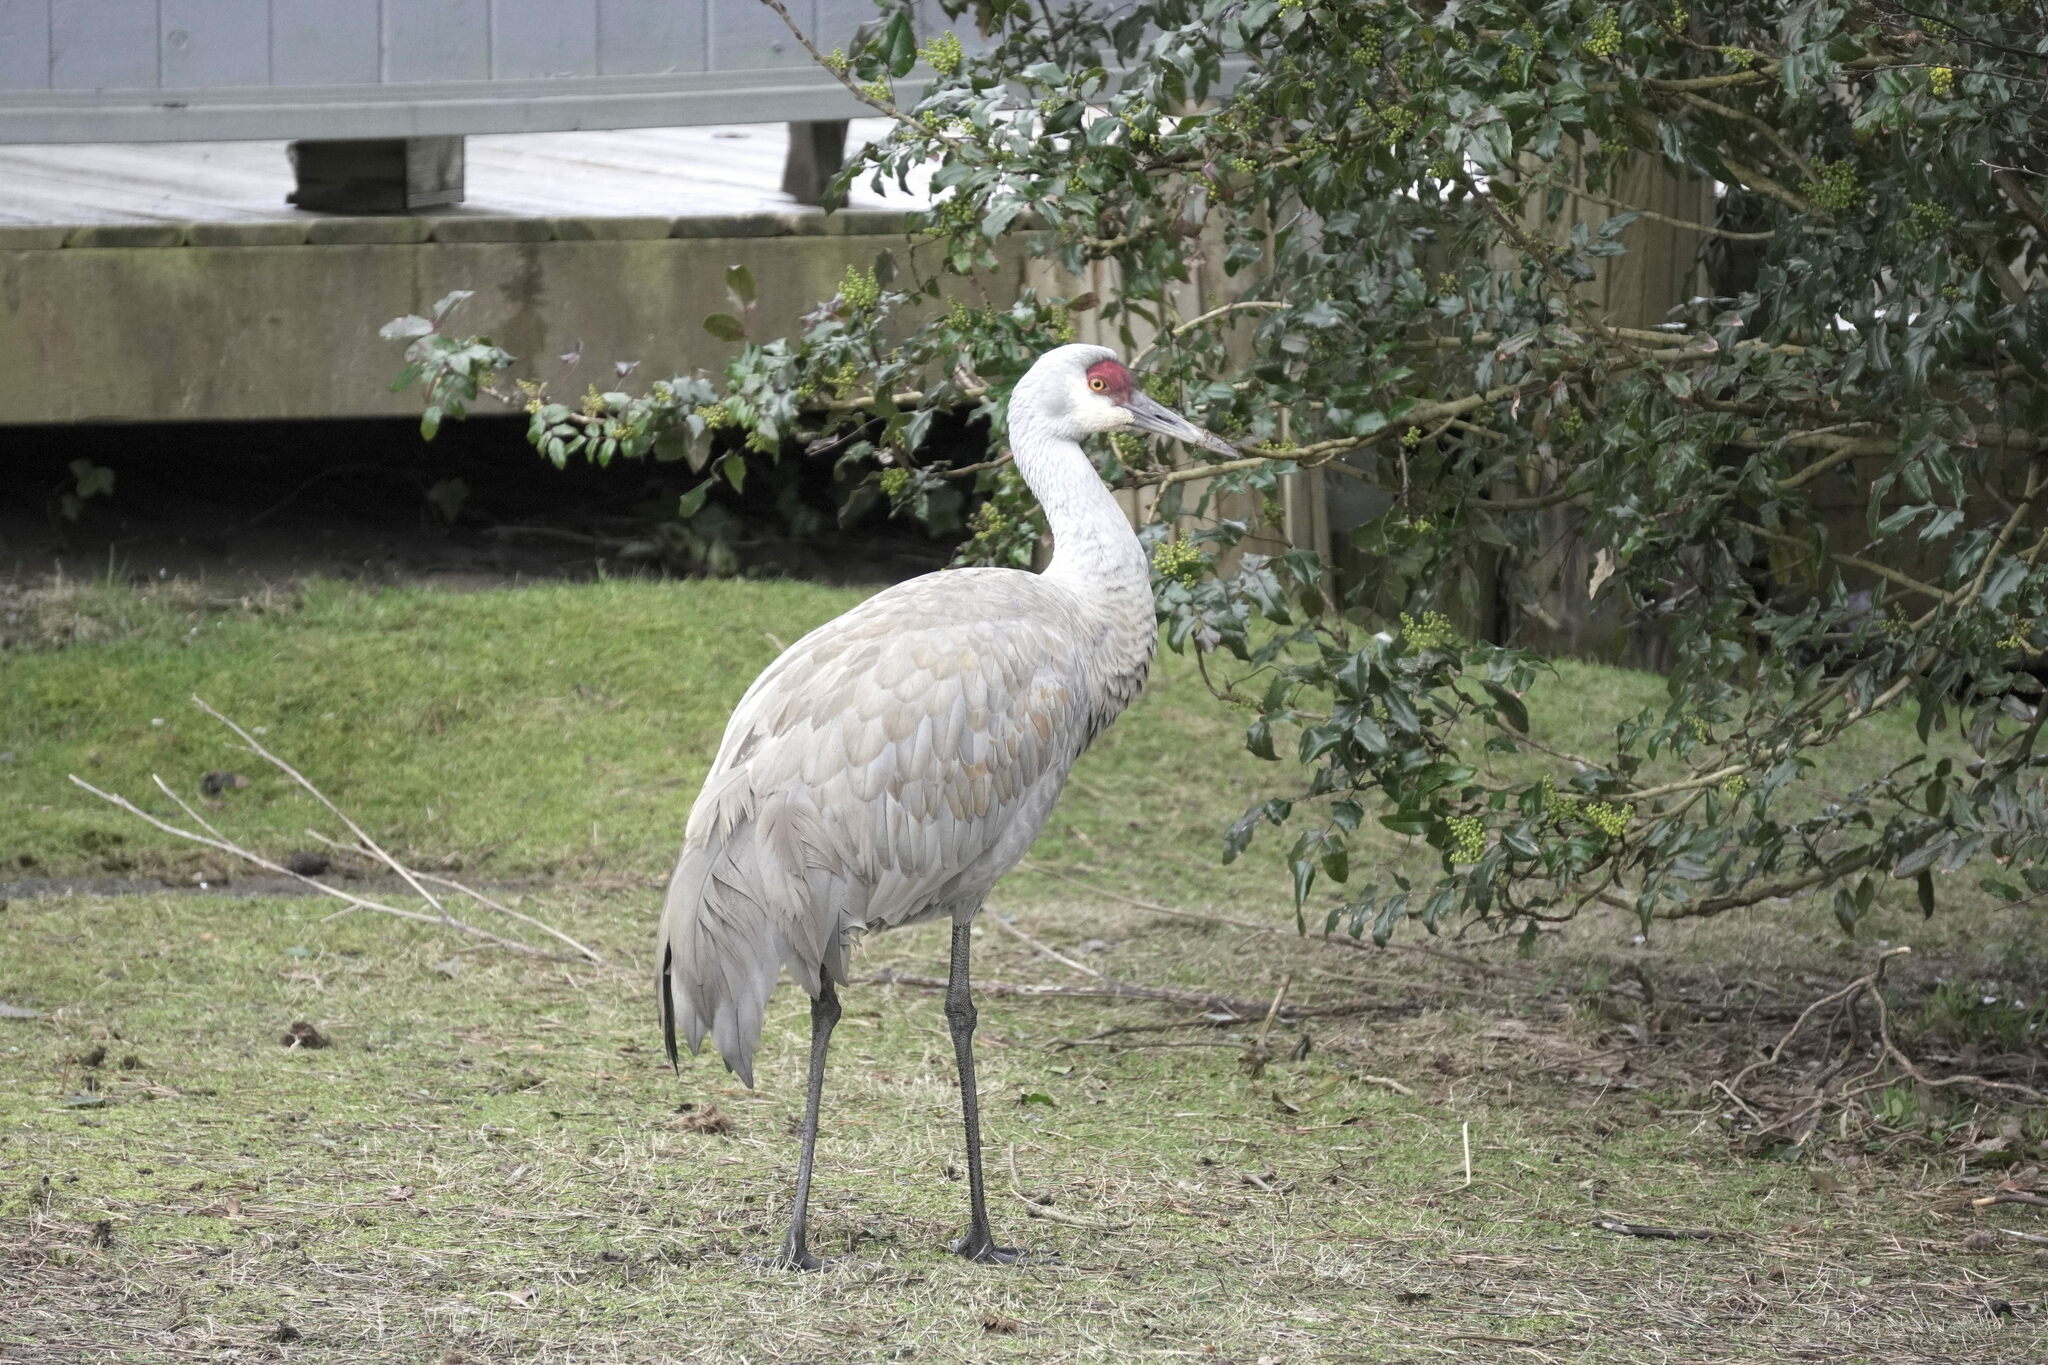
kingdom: Animalia
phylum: Chordata
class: Aves
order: Gruiformes
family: Gruidae
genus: Grus
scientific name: Grus canadensis
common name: Sandhill crane
